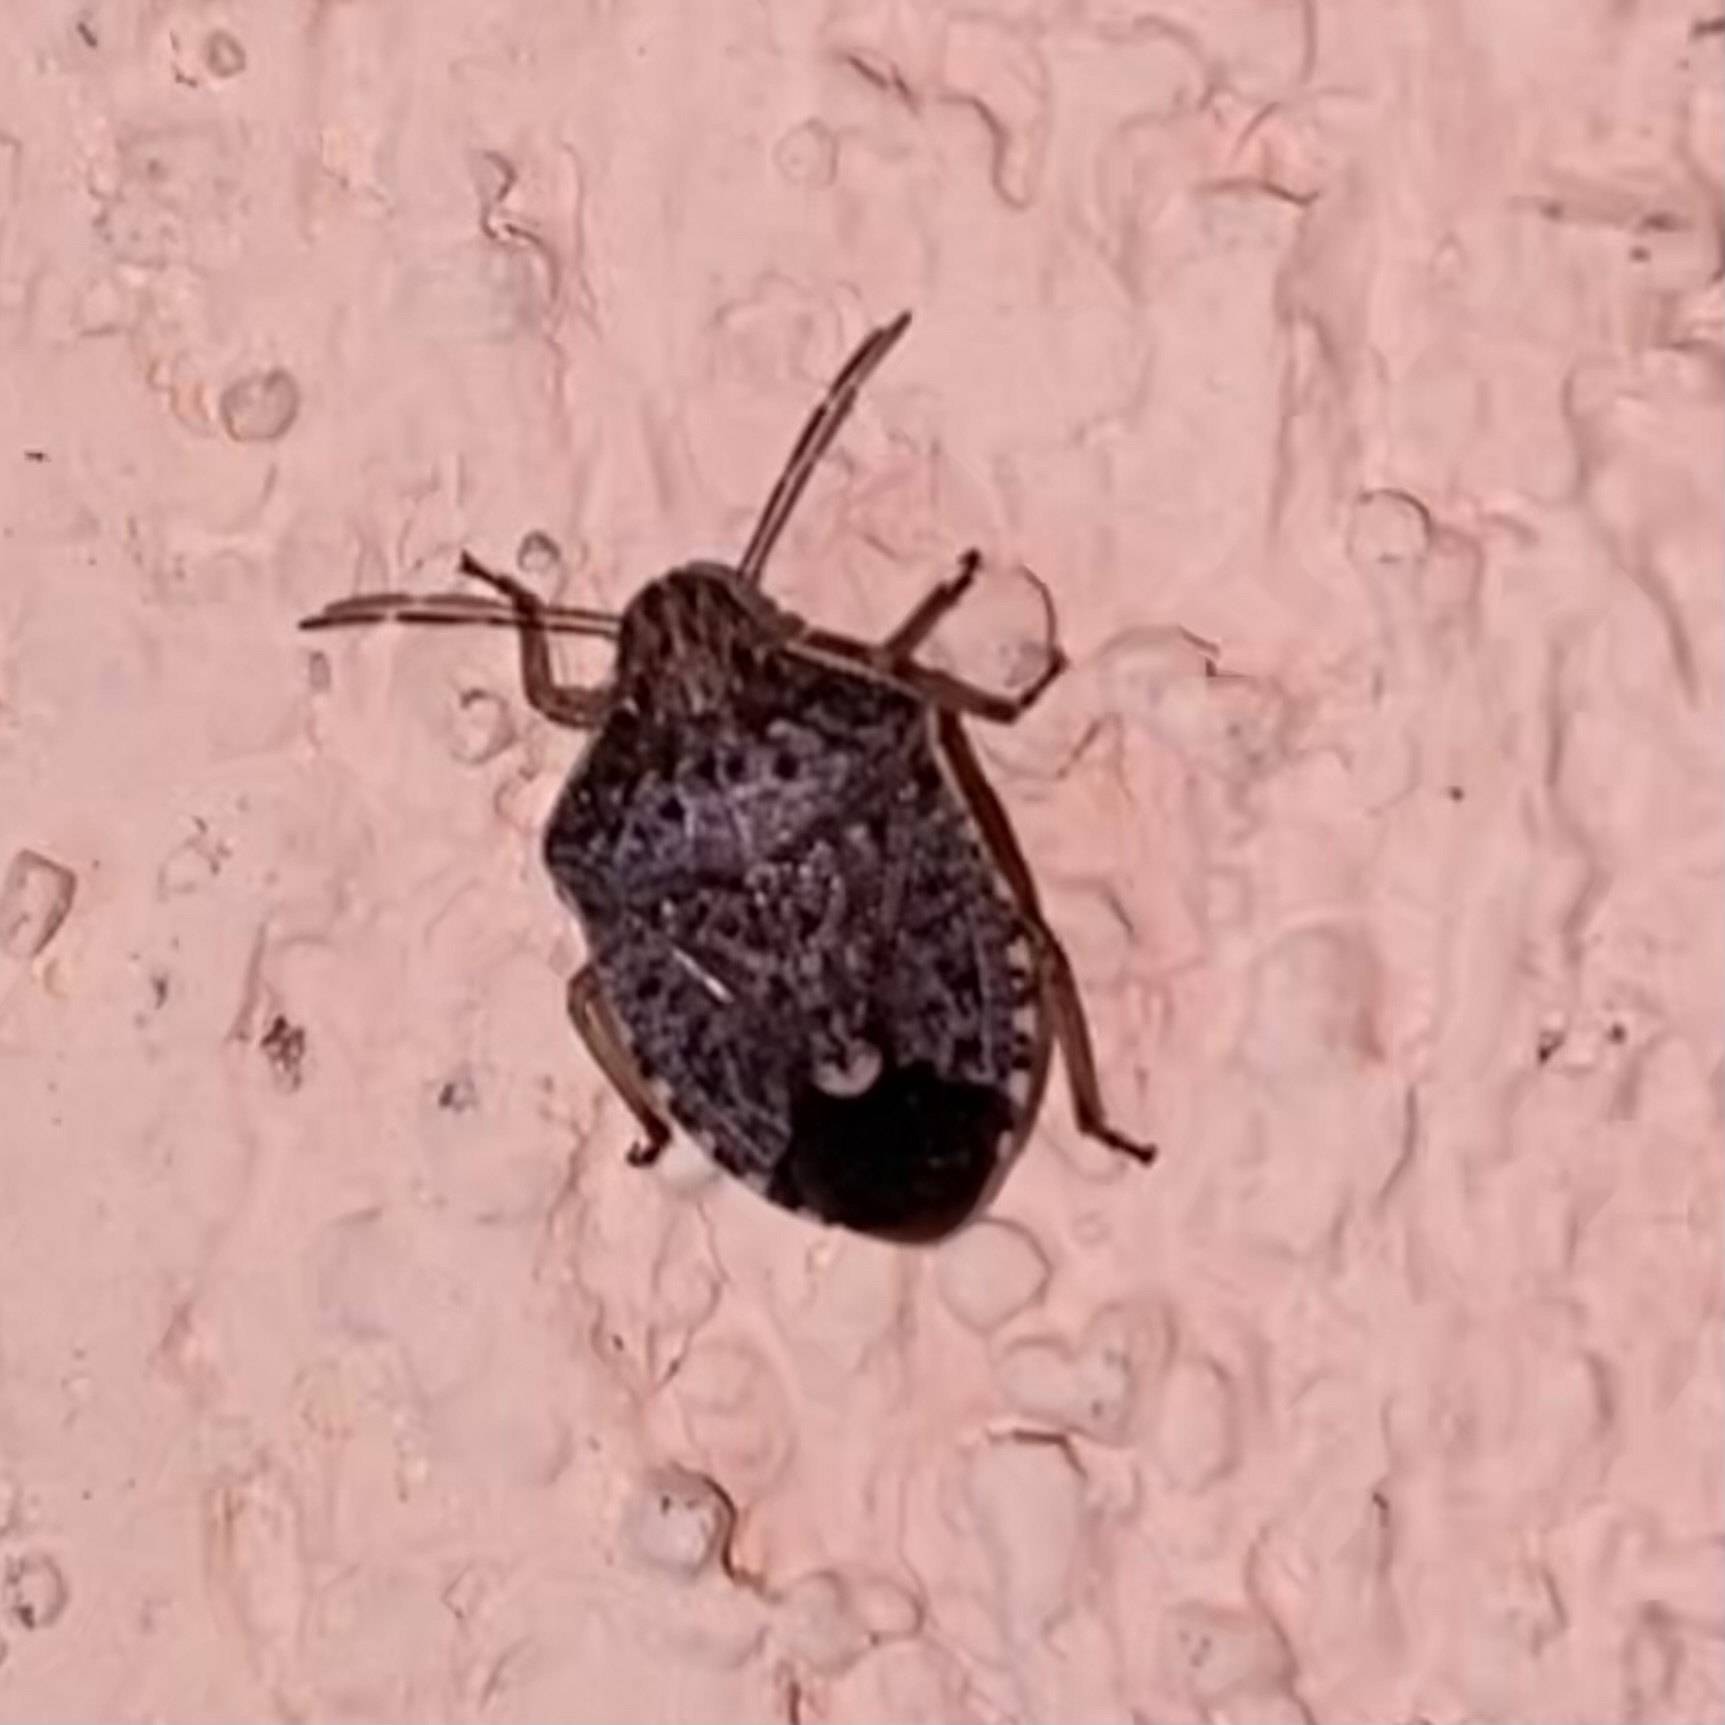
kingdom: Animalia
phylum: Arthropoda
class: Insecta
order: Hemiptera
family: Pentatomidae
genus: Holcostethus
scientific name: Holcostethus abbreviatus
